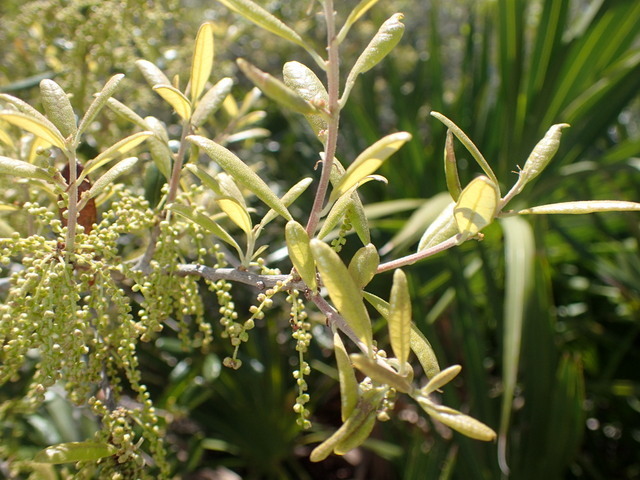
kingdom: Plantae
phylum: Tracheophyta
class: Magnoliopsida
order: Fagales
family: Fagaceae
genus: Quercus
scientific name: Quercus geminata
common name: Sand live oak
